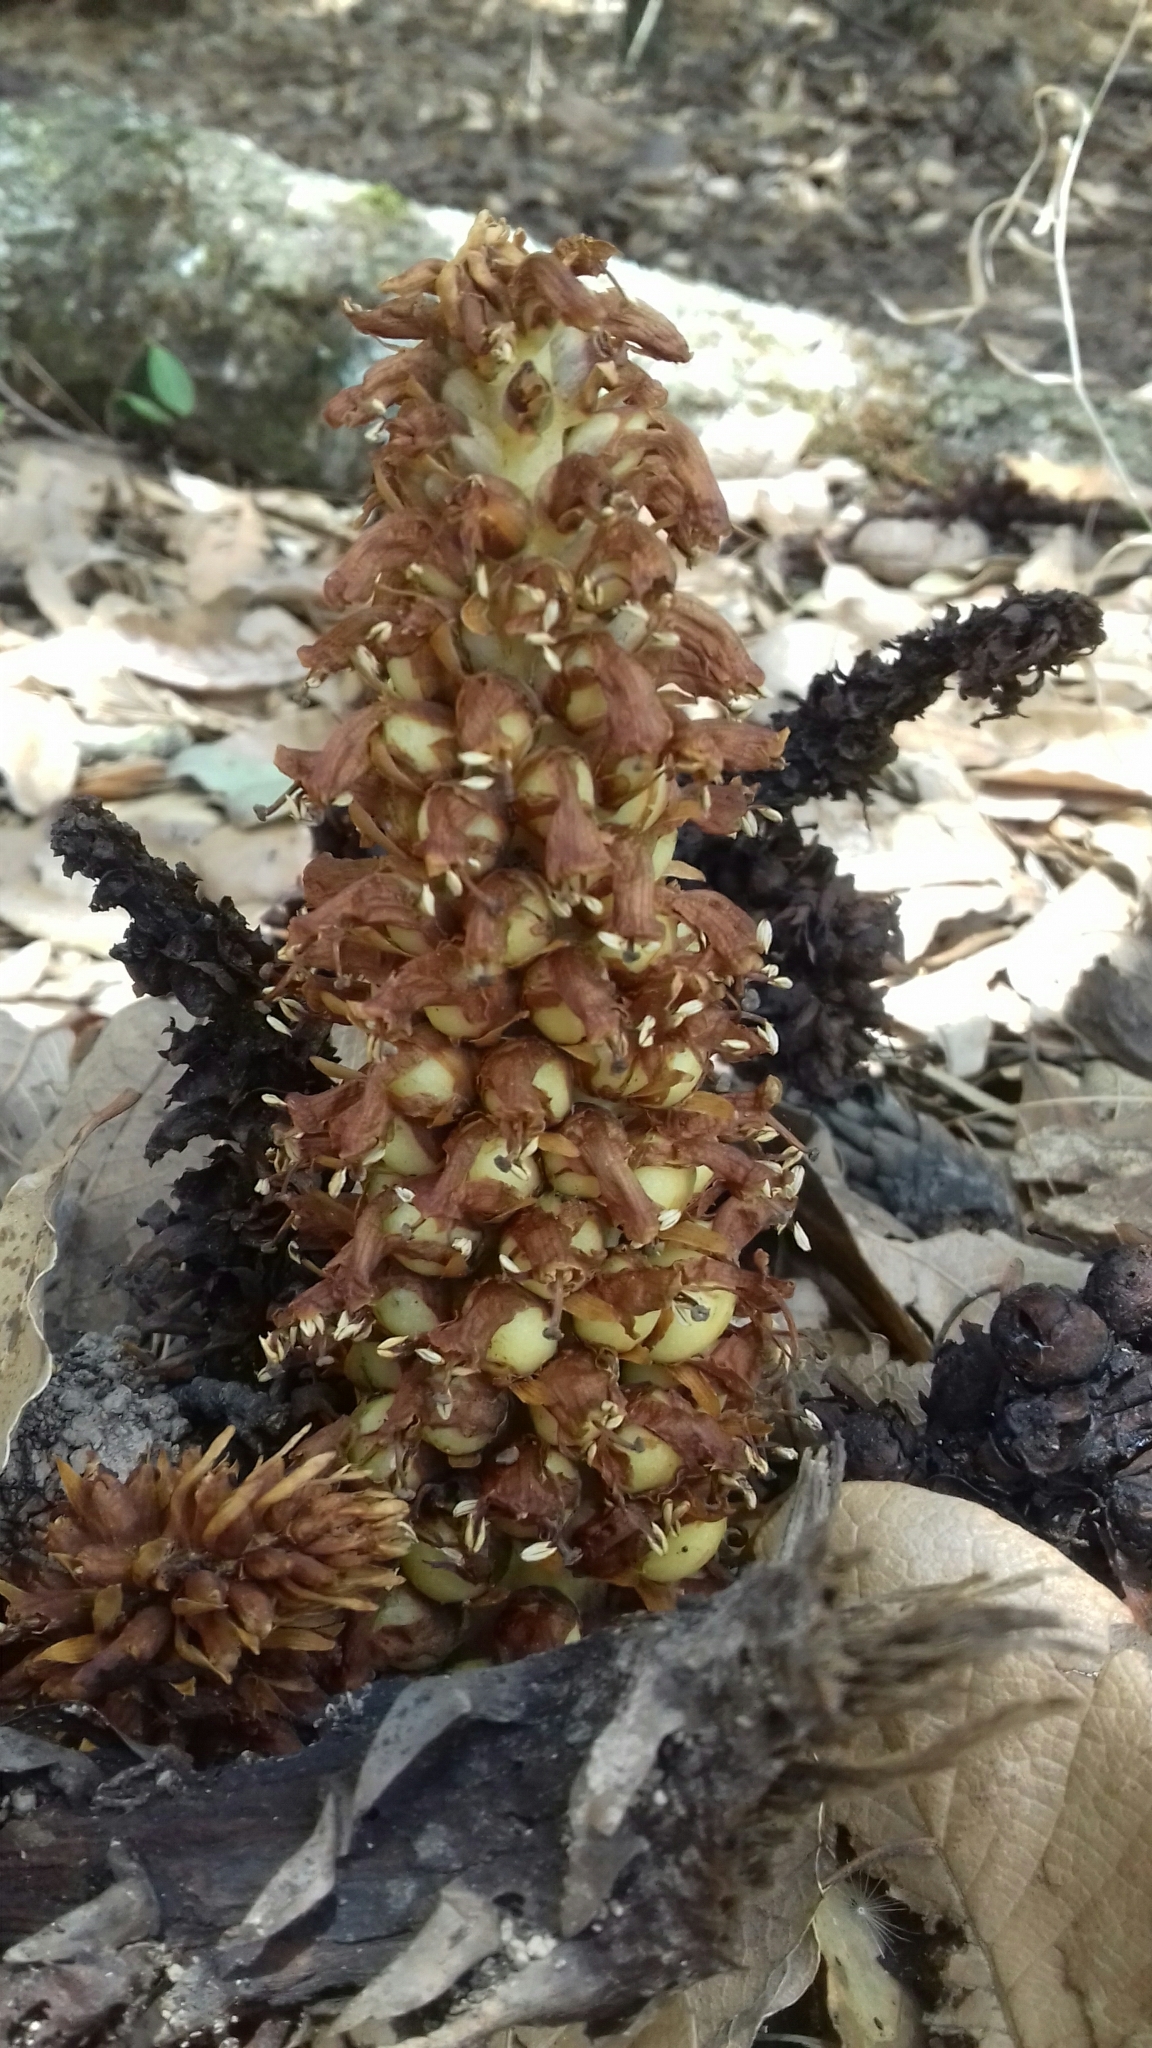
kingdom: Plantae
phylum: Tracheophyta
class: Magnoliopsida
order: Lamiales
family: Orobanchaceae
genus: Conopholis
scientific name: Conopholis alpina
